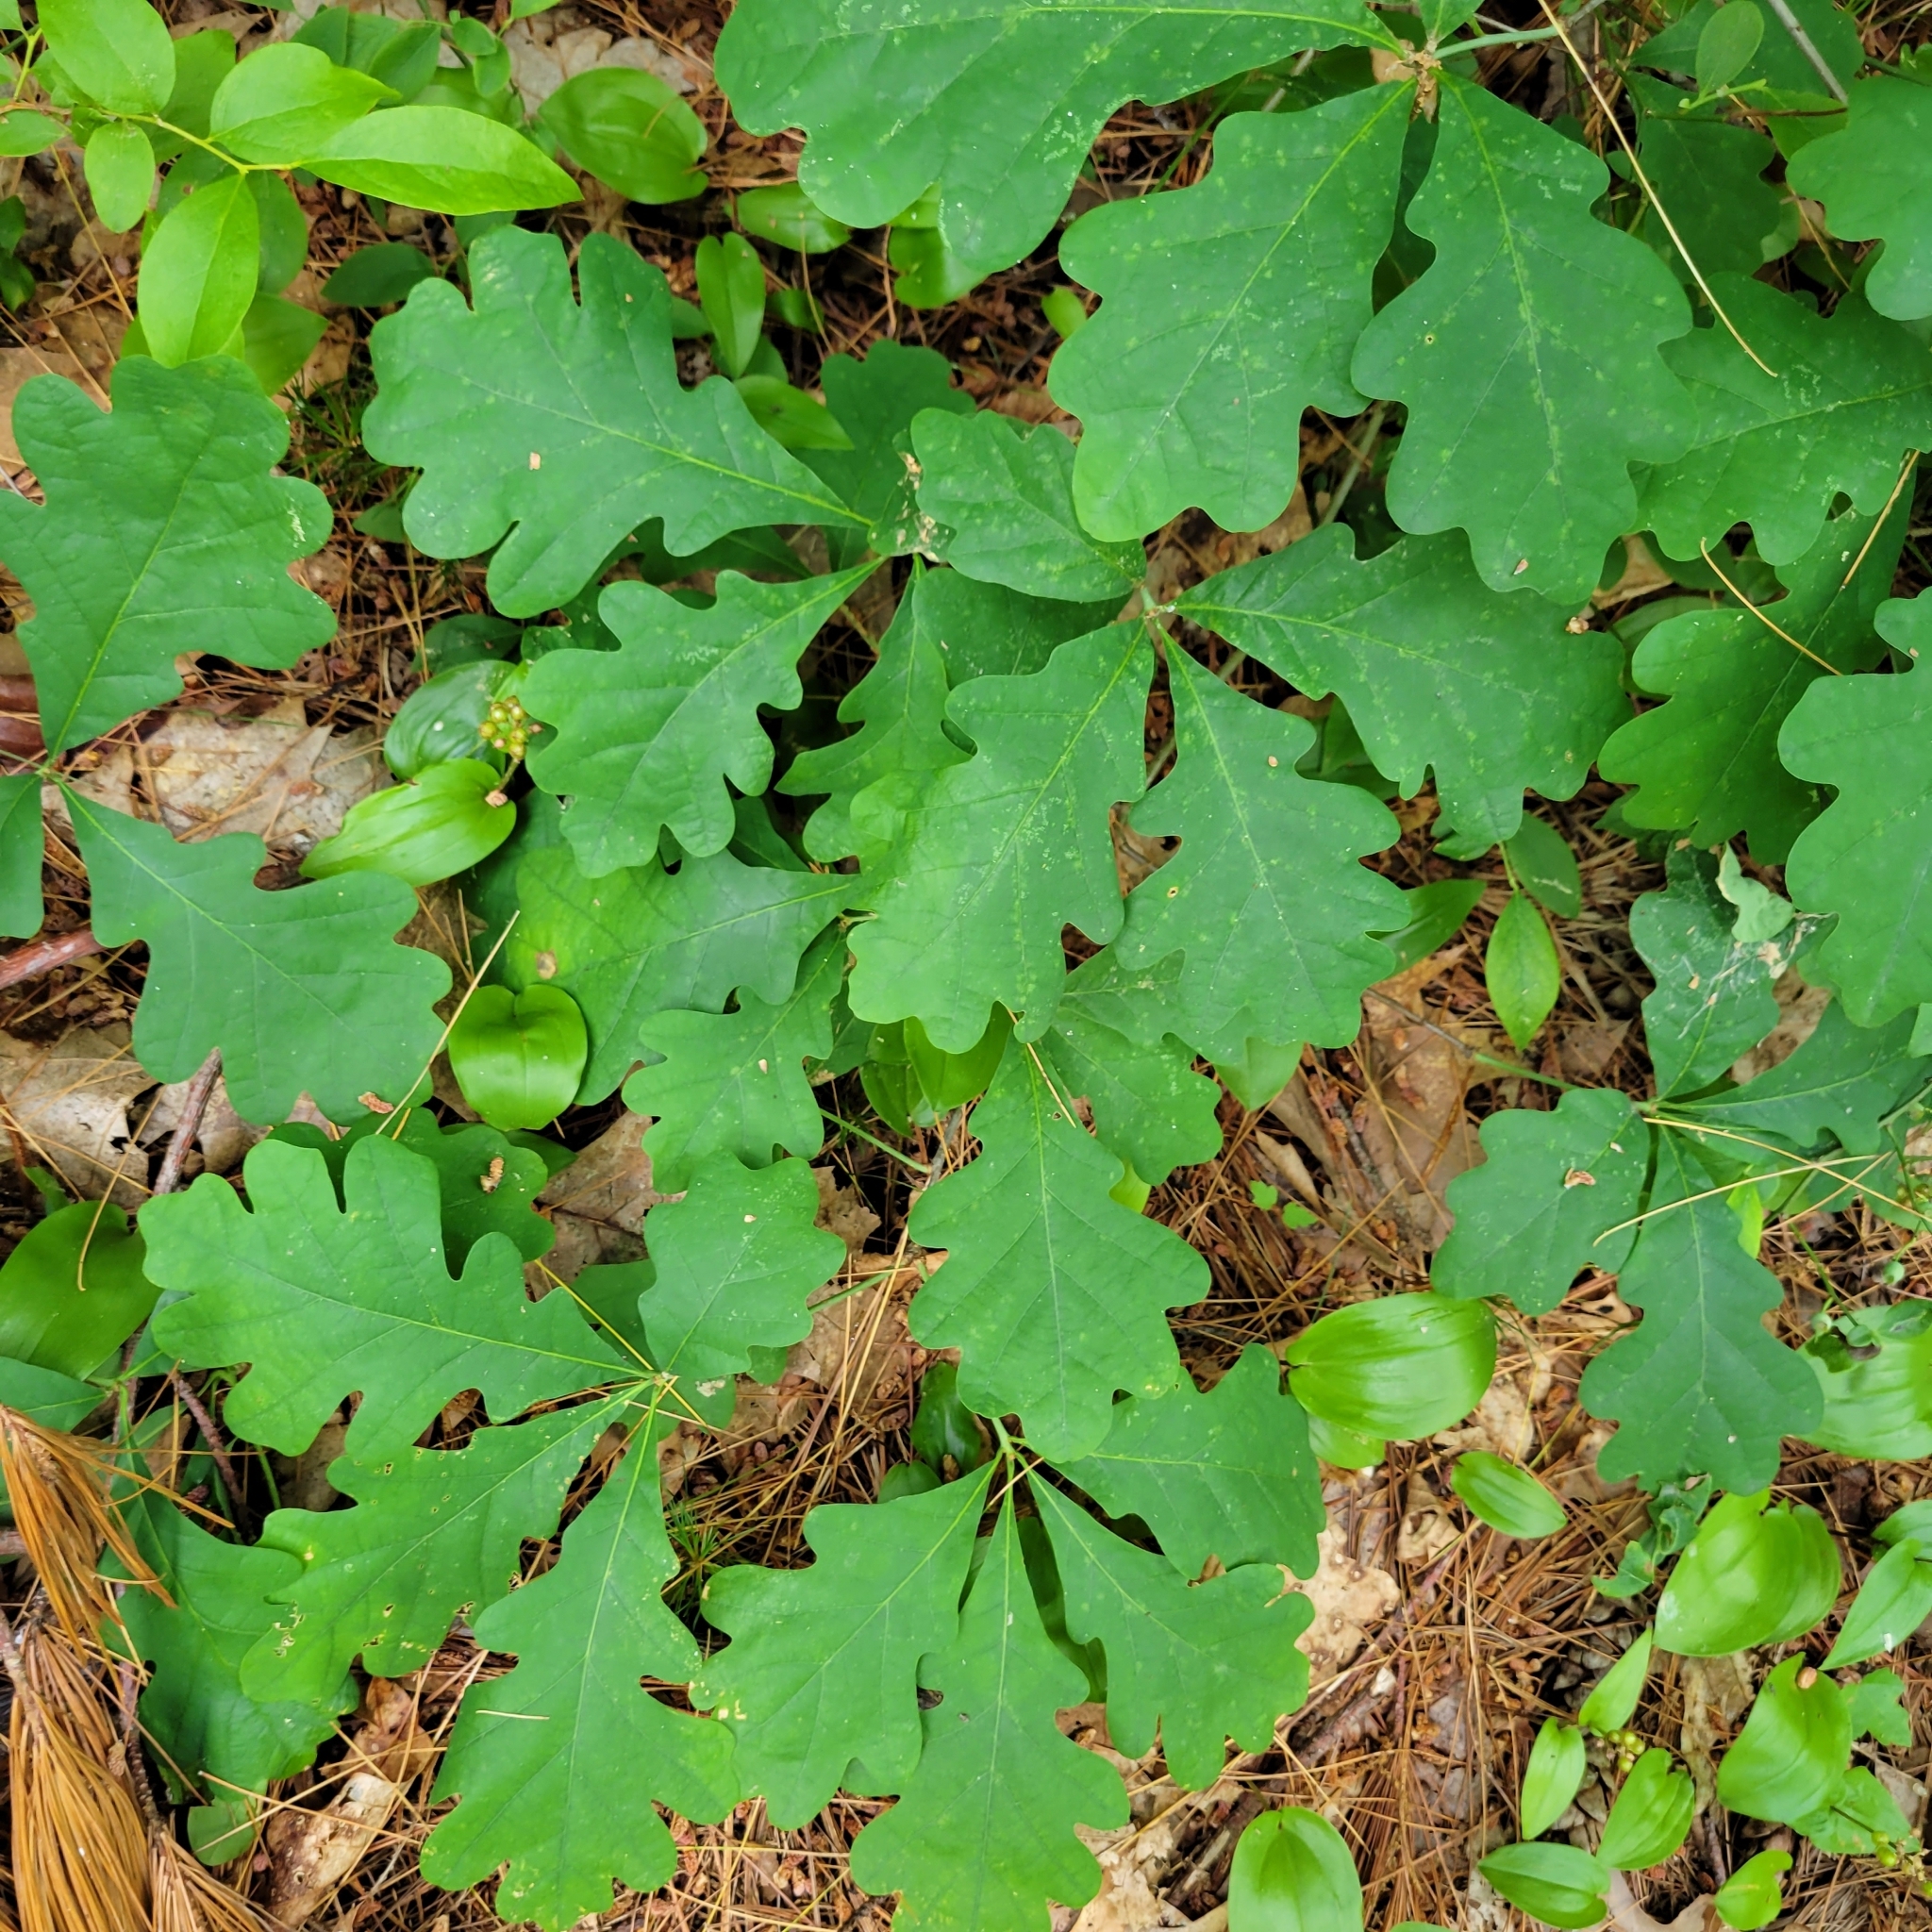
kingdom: Plantae
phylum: Tracheophyta
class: Magnoliopsida
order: Fagales
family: Fagaceae
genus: Quercus
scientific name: Quercus alba
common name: White oak
